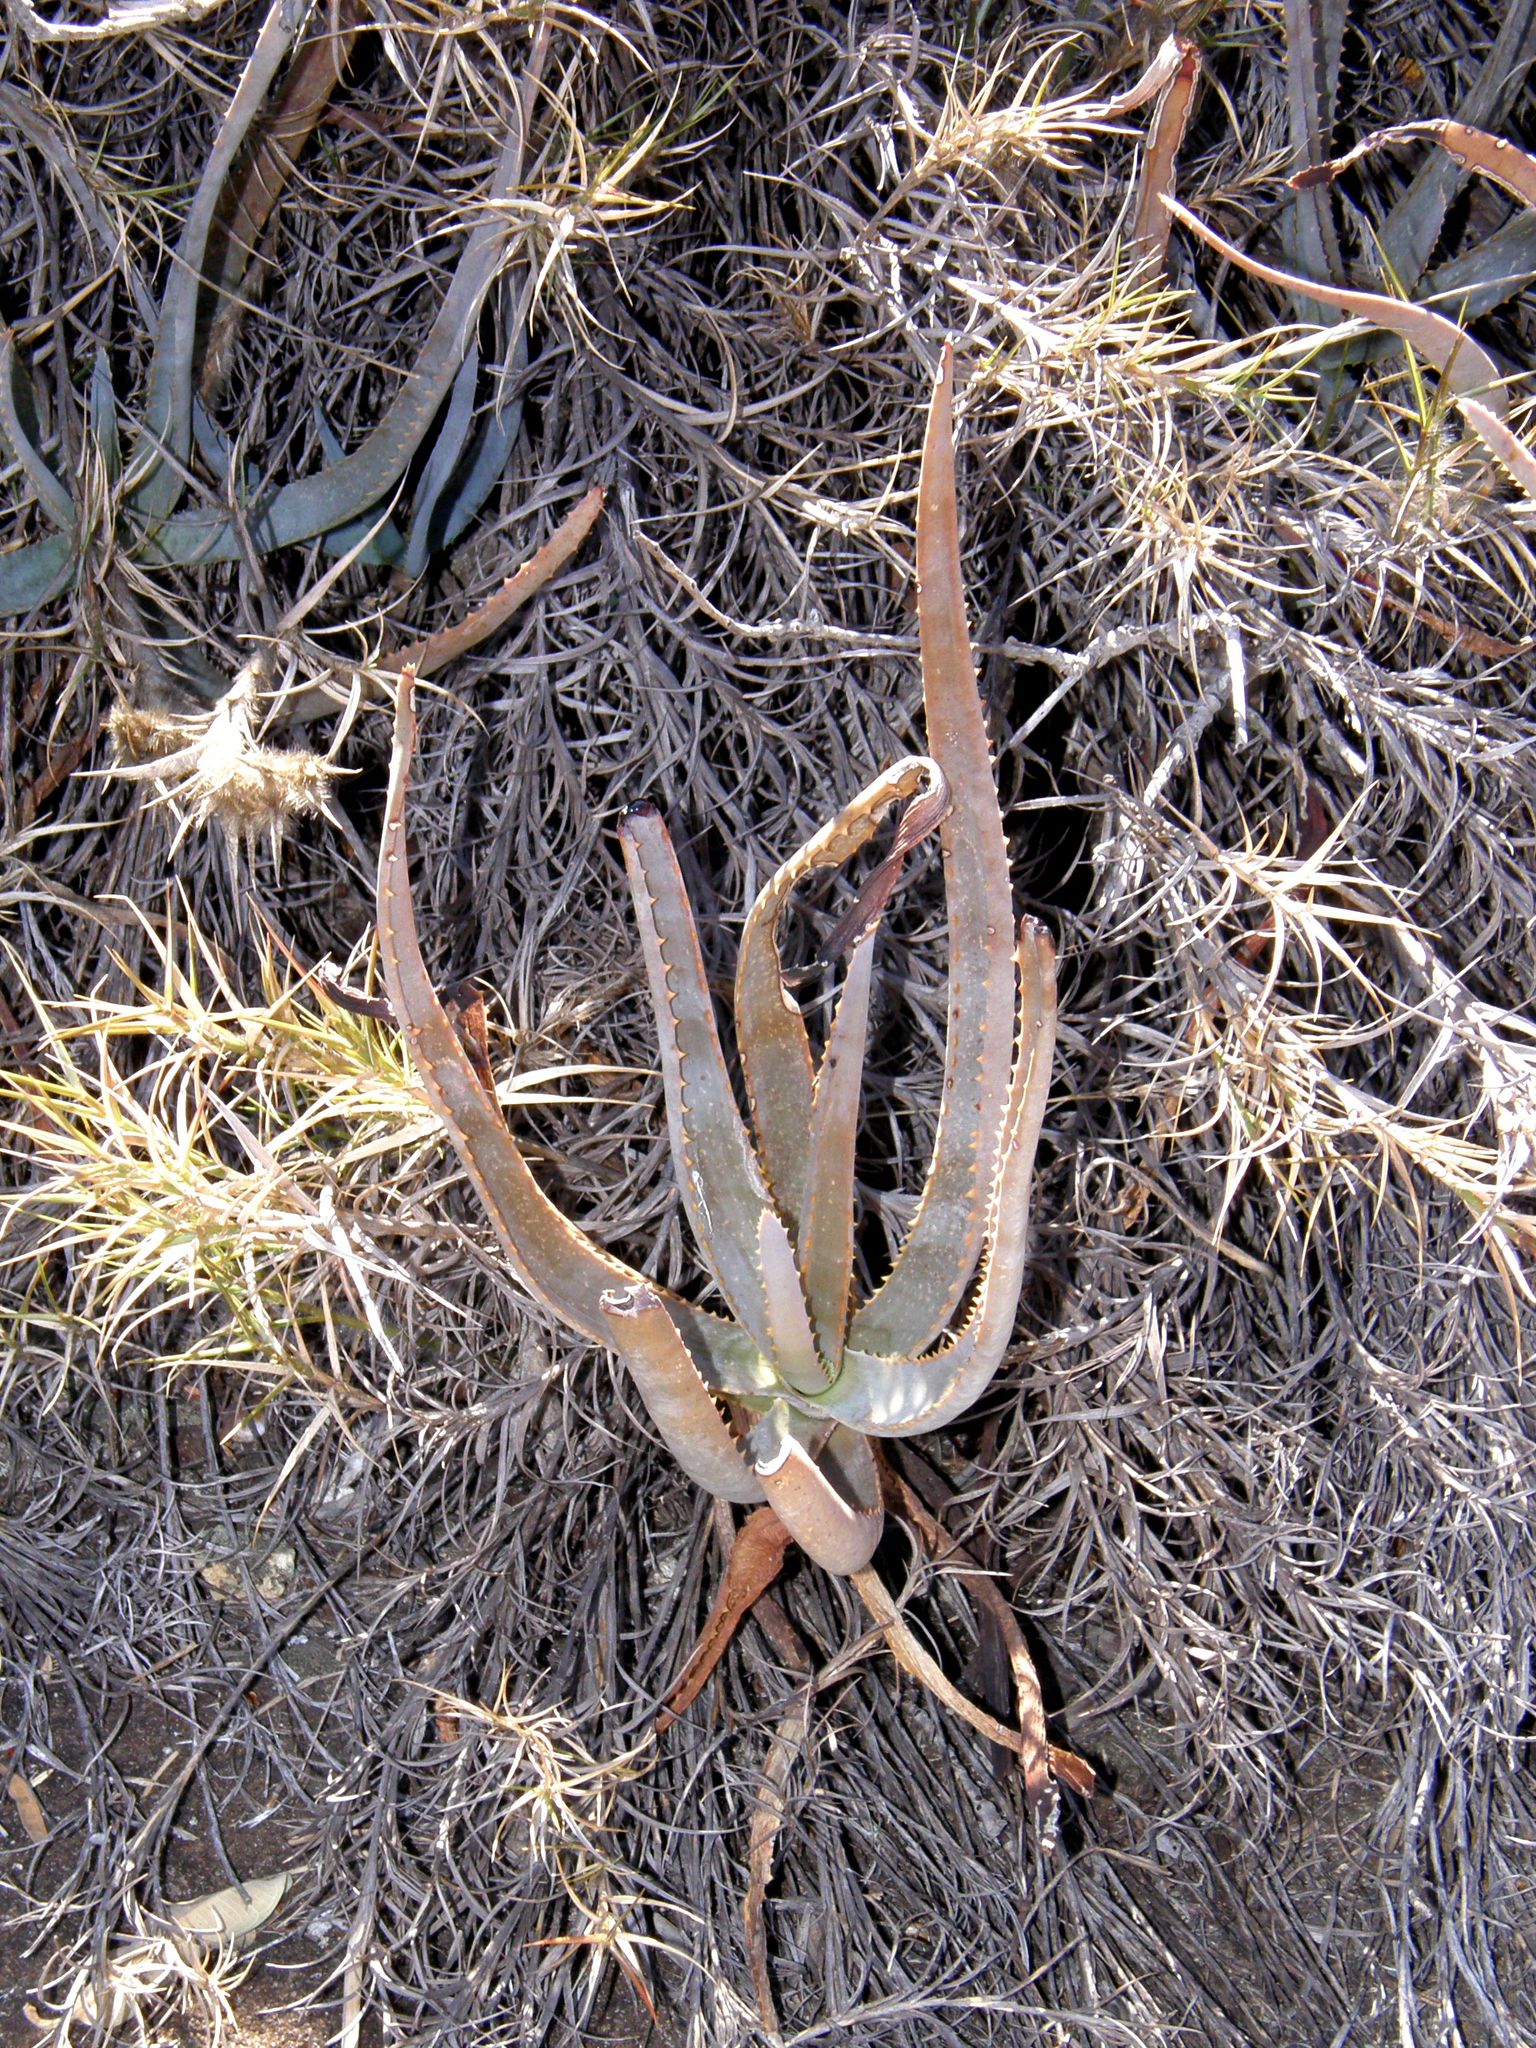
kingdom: Plantae
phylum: Tracheophyta
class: Liliopsida
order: Asparagales
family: Asphodelaceae
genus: Aloe
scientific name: Aloe isaloensis
